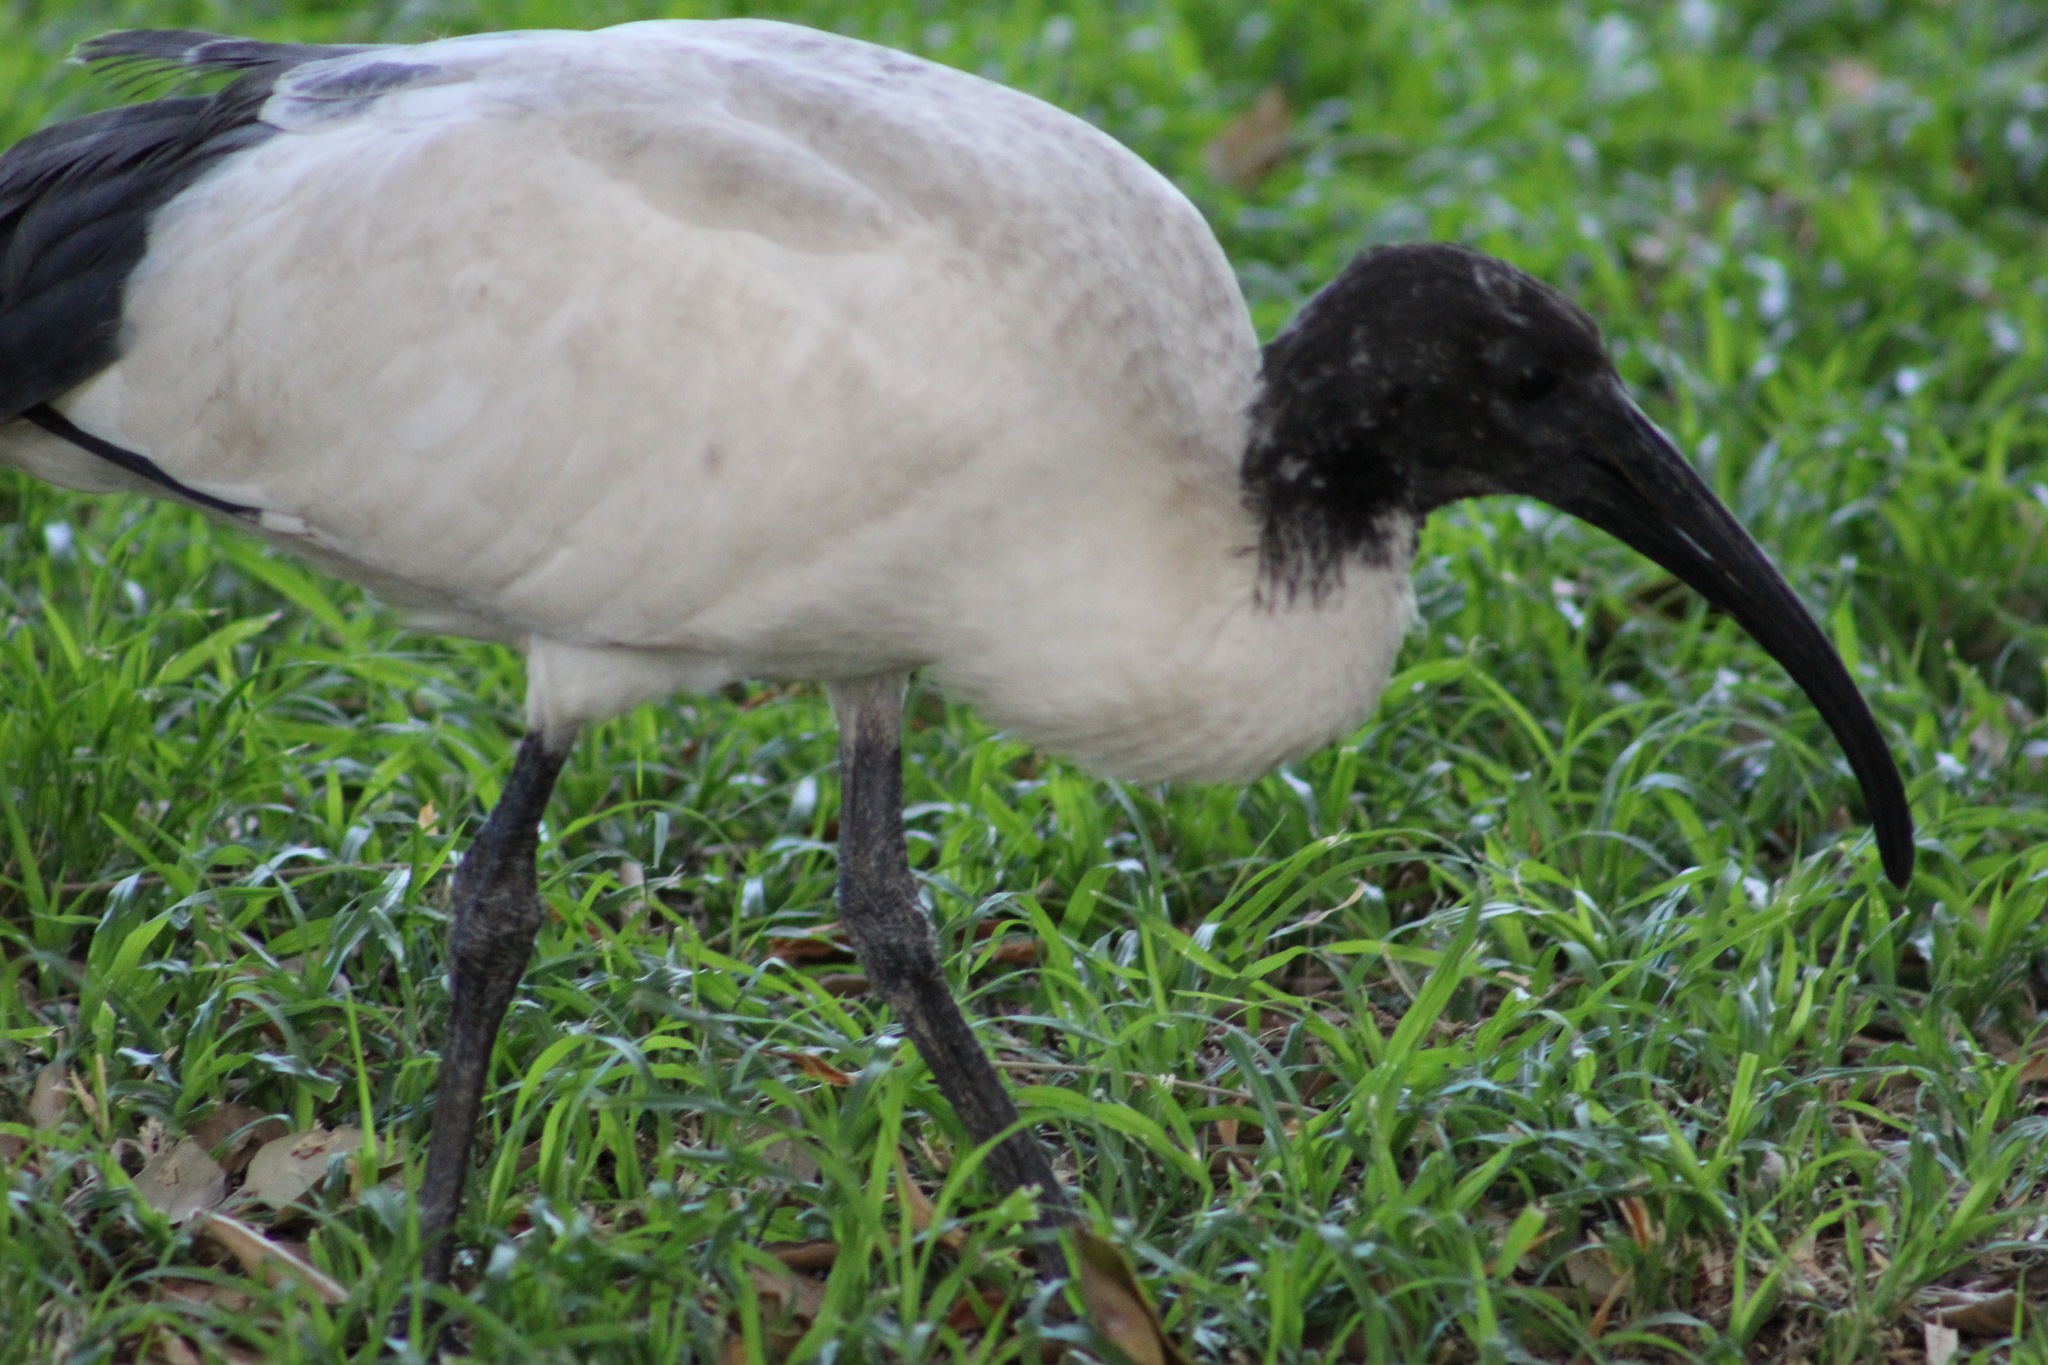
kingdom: Animalia
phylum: Chordata
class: Aves
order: Pelecaniformes
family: Threskiornithidae
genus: Threskiornis
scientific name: Threskiornis molucca
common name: Australian white ibis
